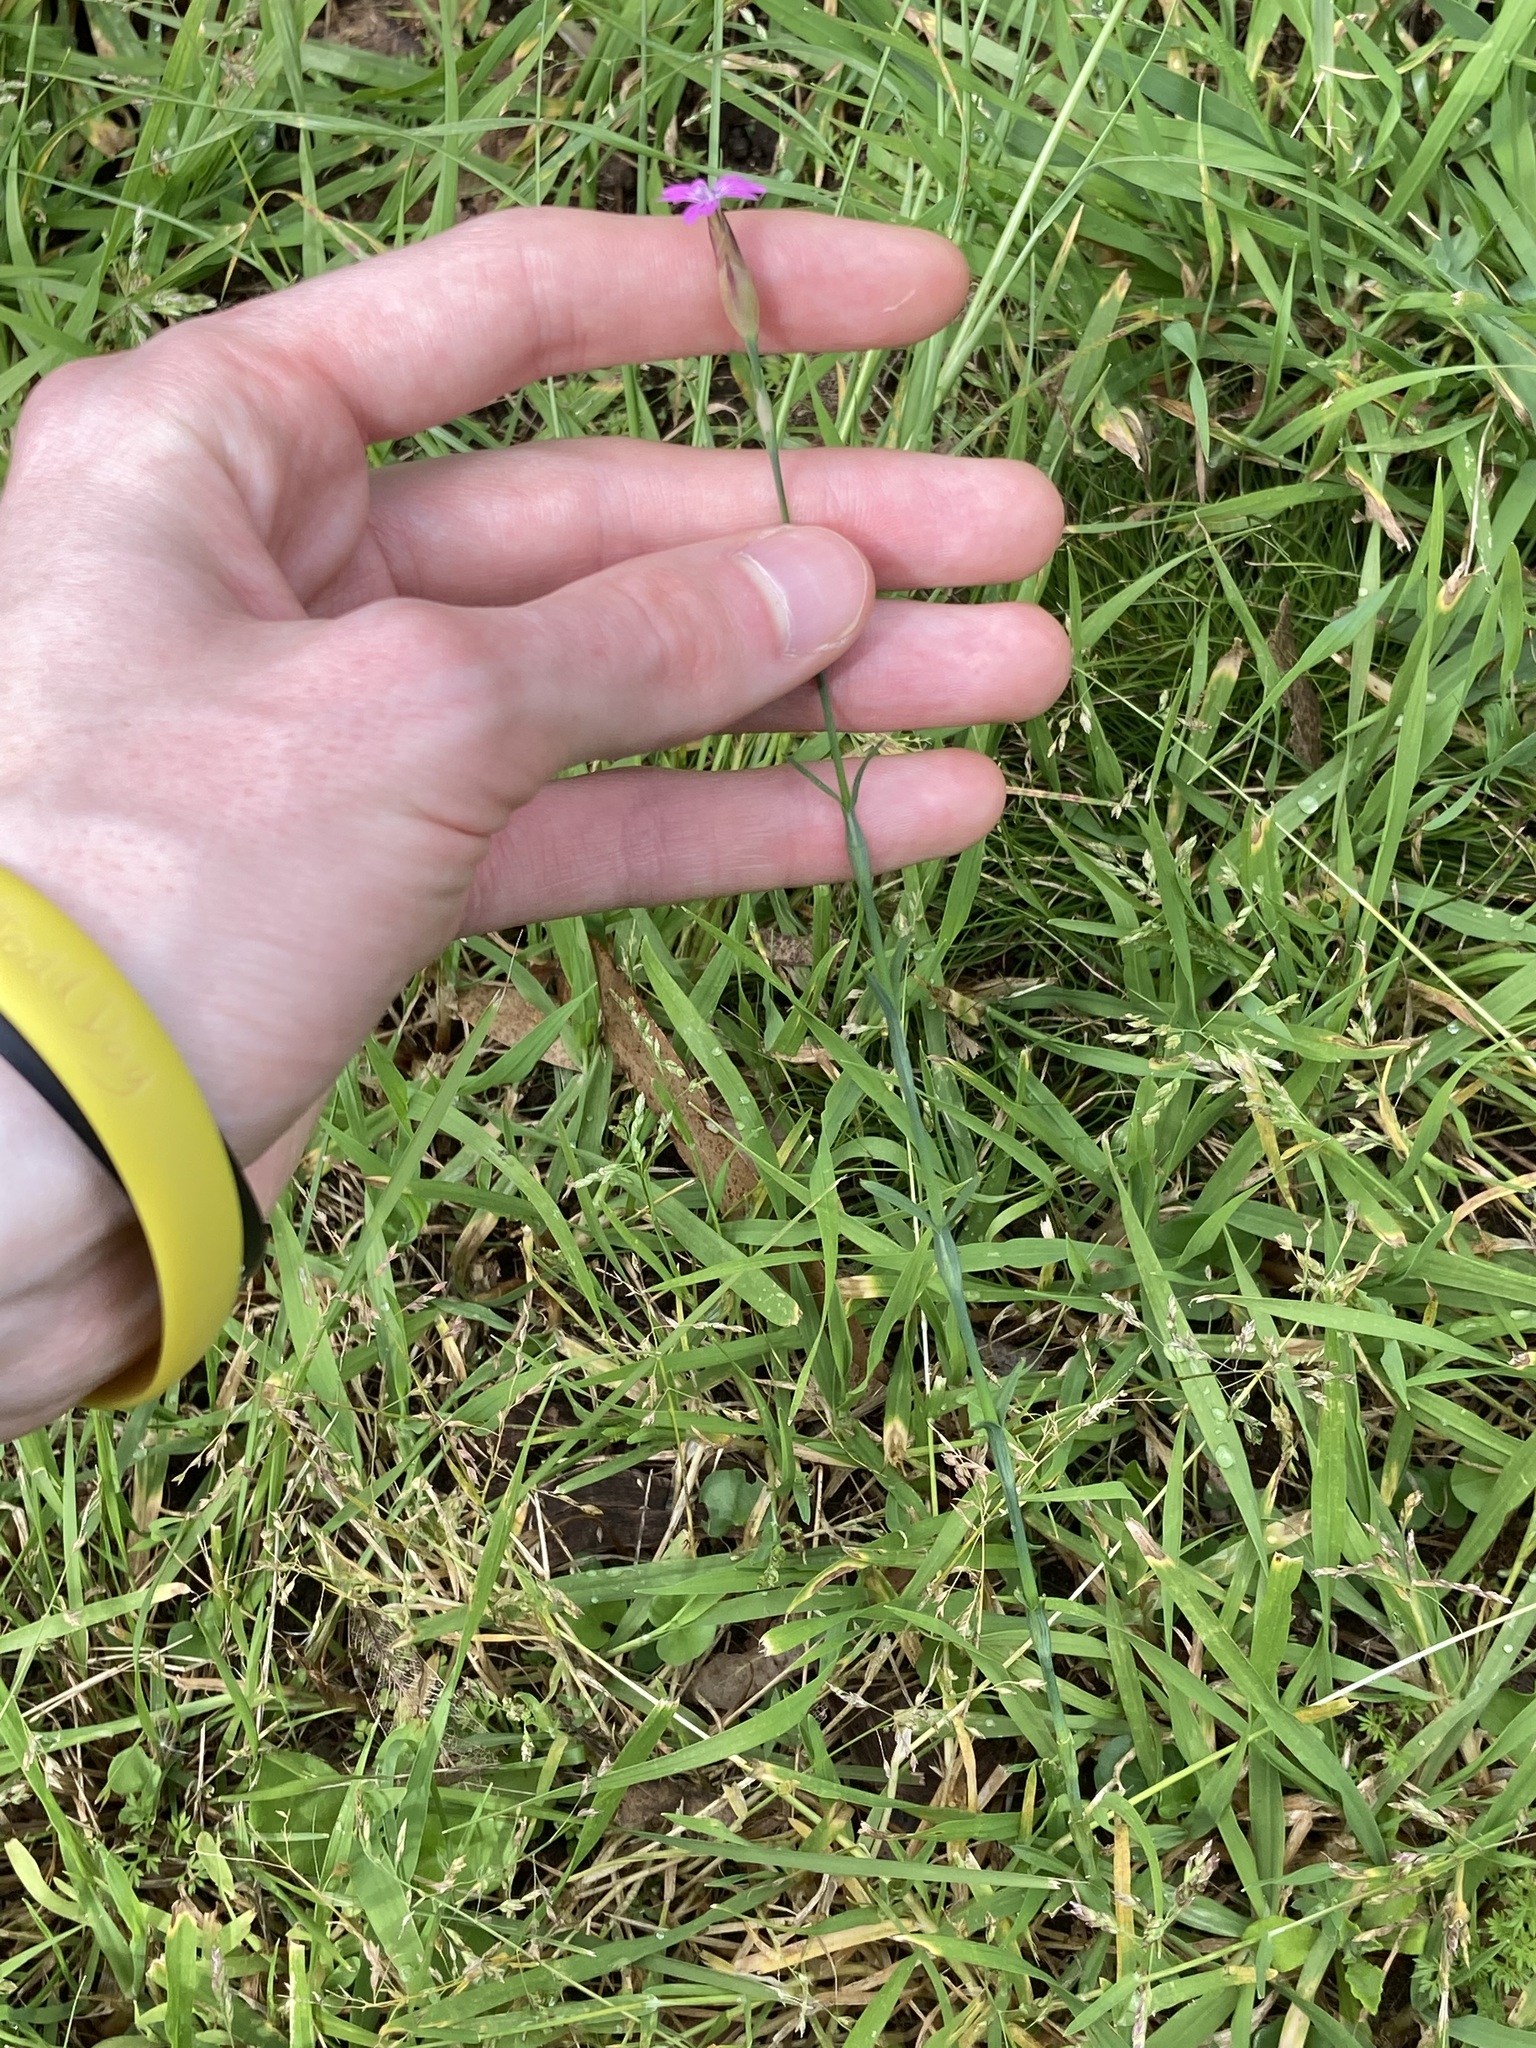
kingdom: Plantae
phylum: Tracheophyta
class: Magnoliopsida
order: Caryophyllales
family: Caryophyllaceae
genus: Petrorhagia
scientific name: Petrorhagia nanteuilii
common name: Proliferous pink
